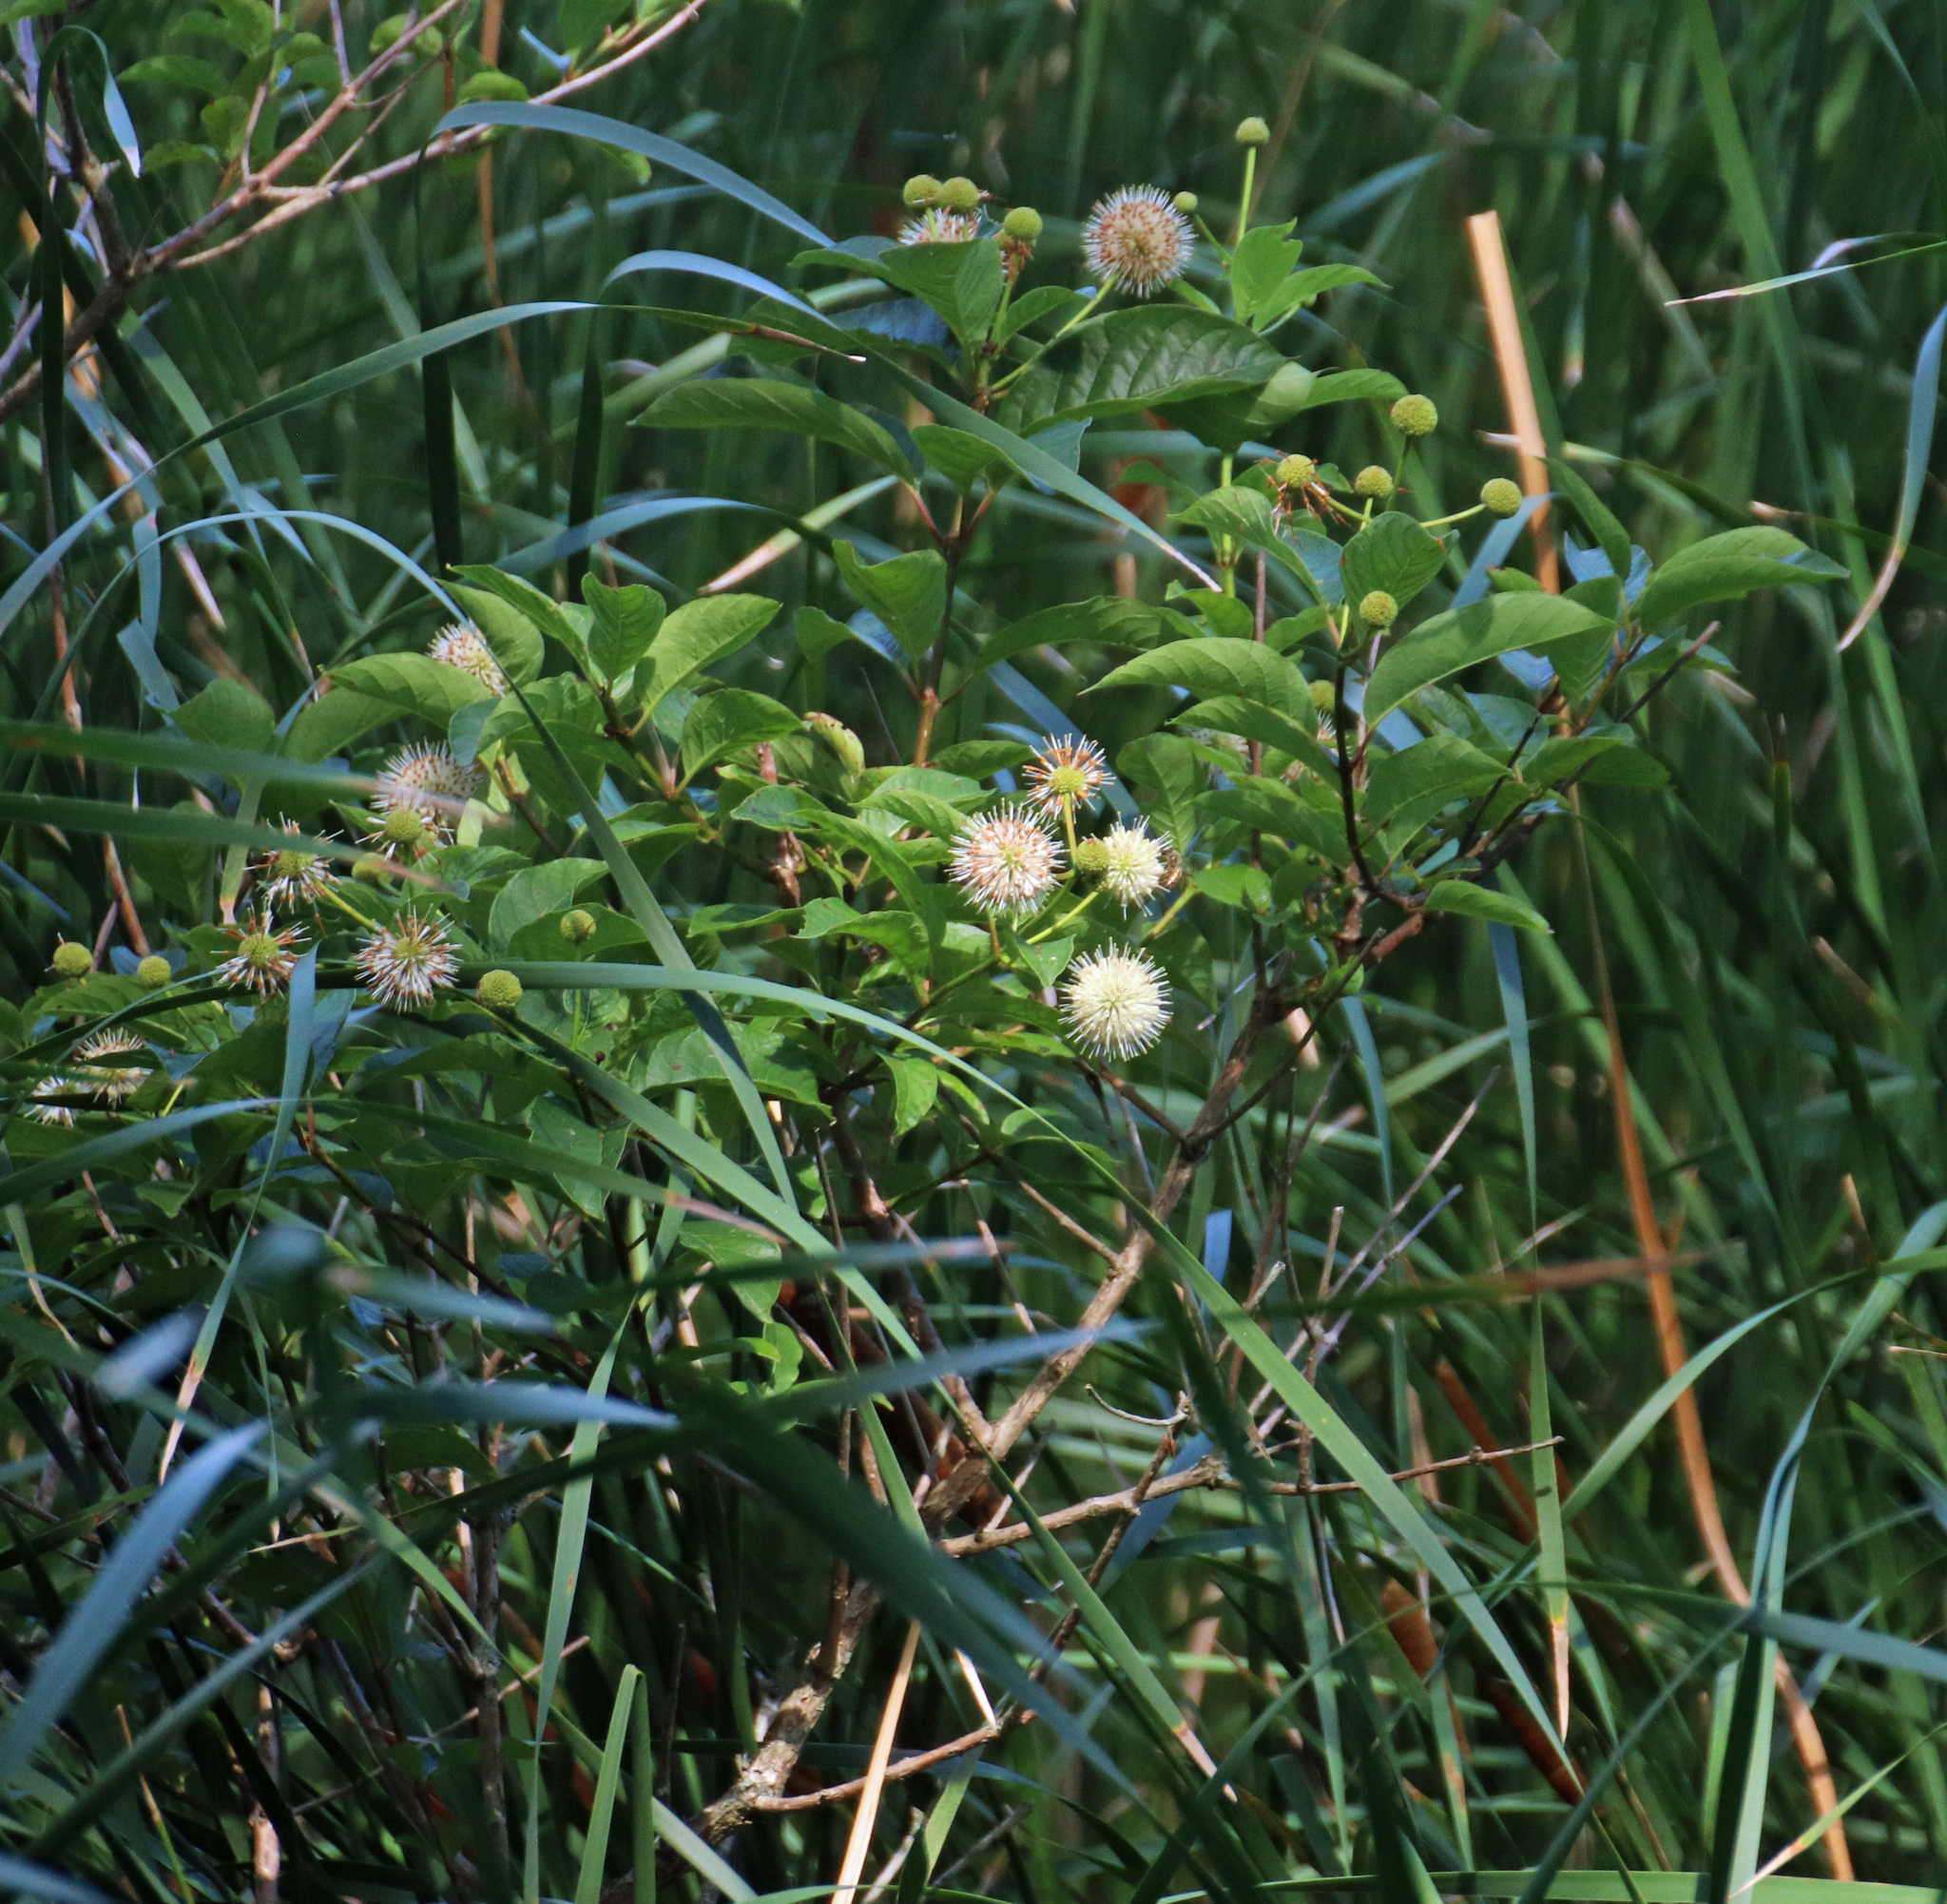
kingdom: Plantae
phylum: Tracheophyta
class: Magnoliopsida
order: Gentianales
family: Rubiaceae
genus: Cephalanthus
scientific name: Cephalanthus occidentalis
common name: Button-willow
